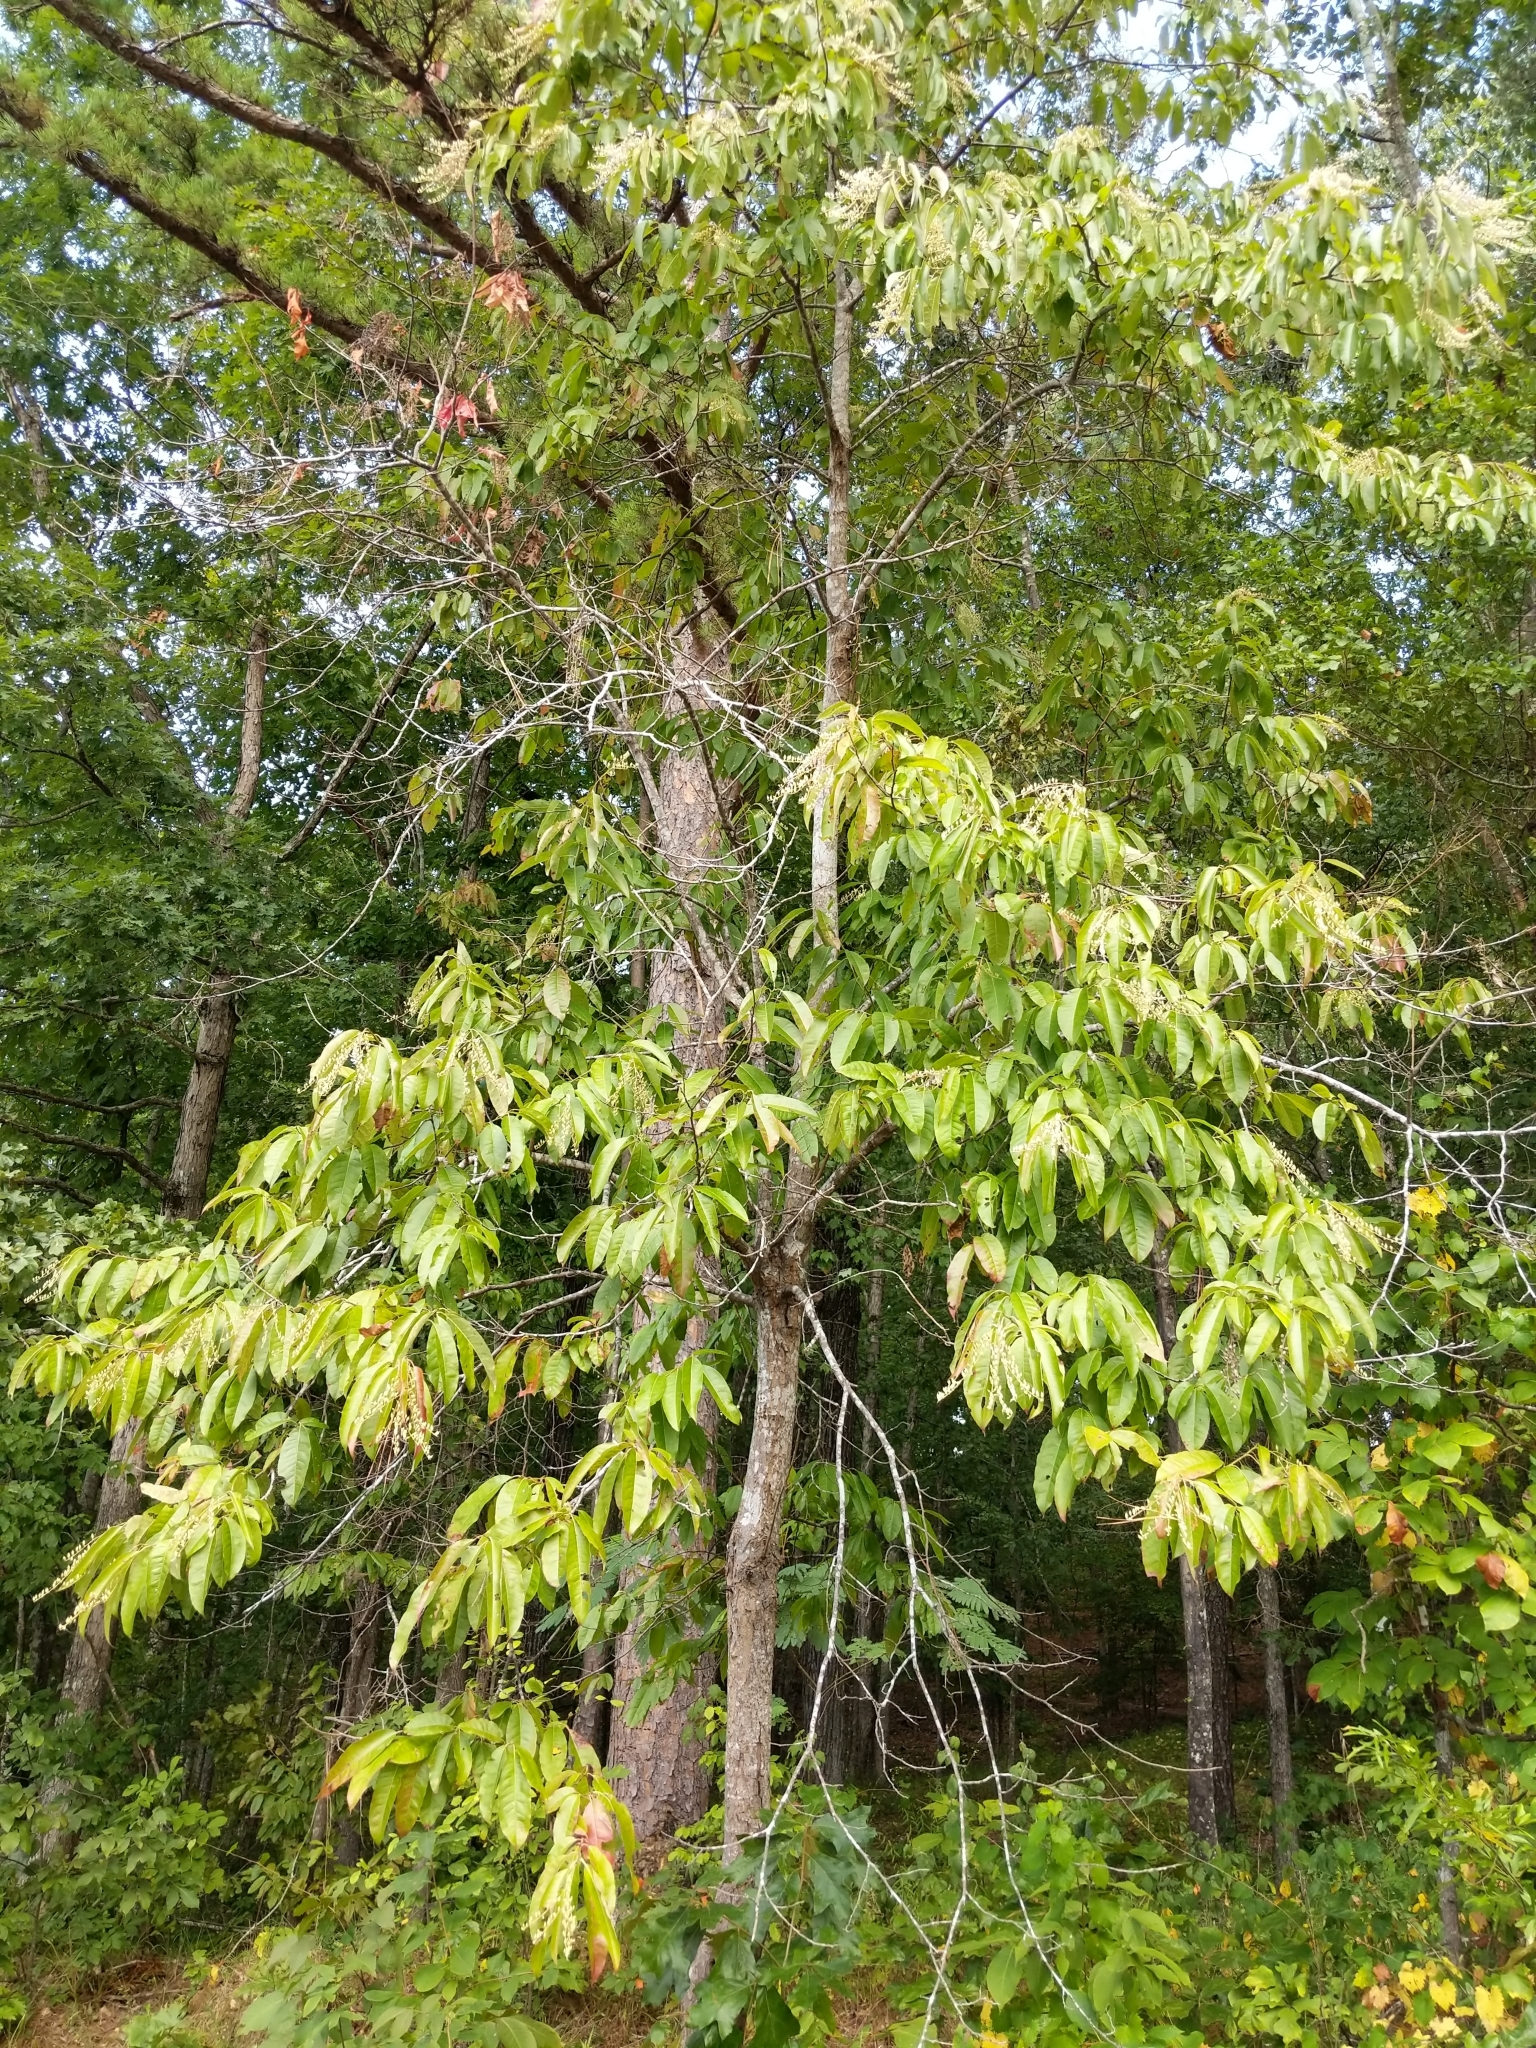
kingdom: Plantae
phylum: Tracheophyta
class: Magnoliopsida
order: Ericales
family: Ericaceae
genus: Oxydendrum
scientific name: Oxydendrum arboreum
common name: Sourwood
